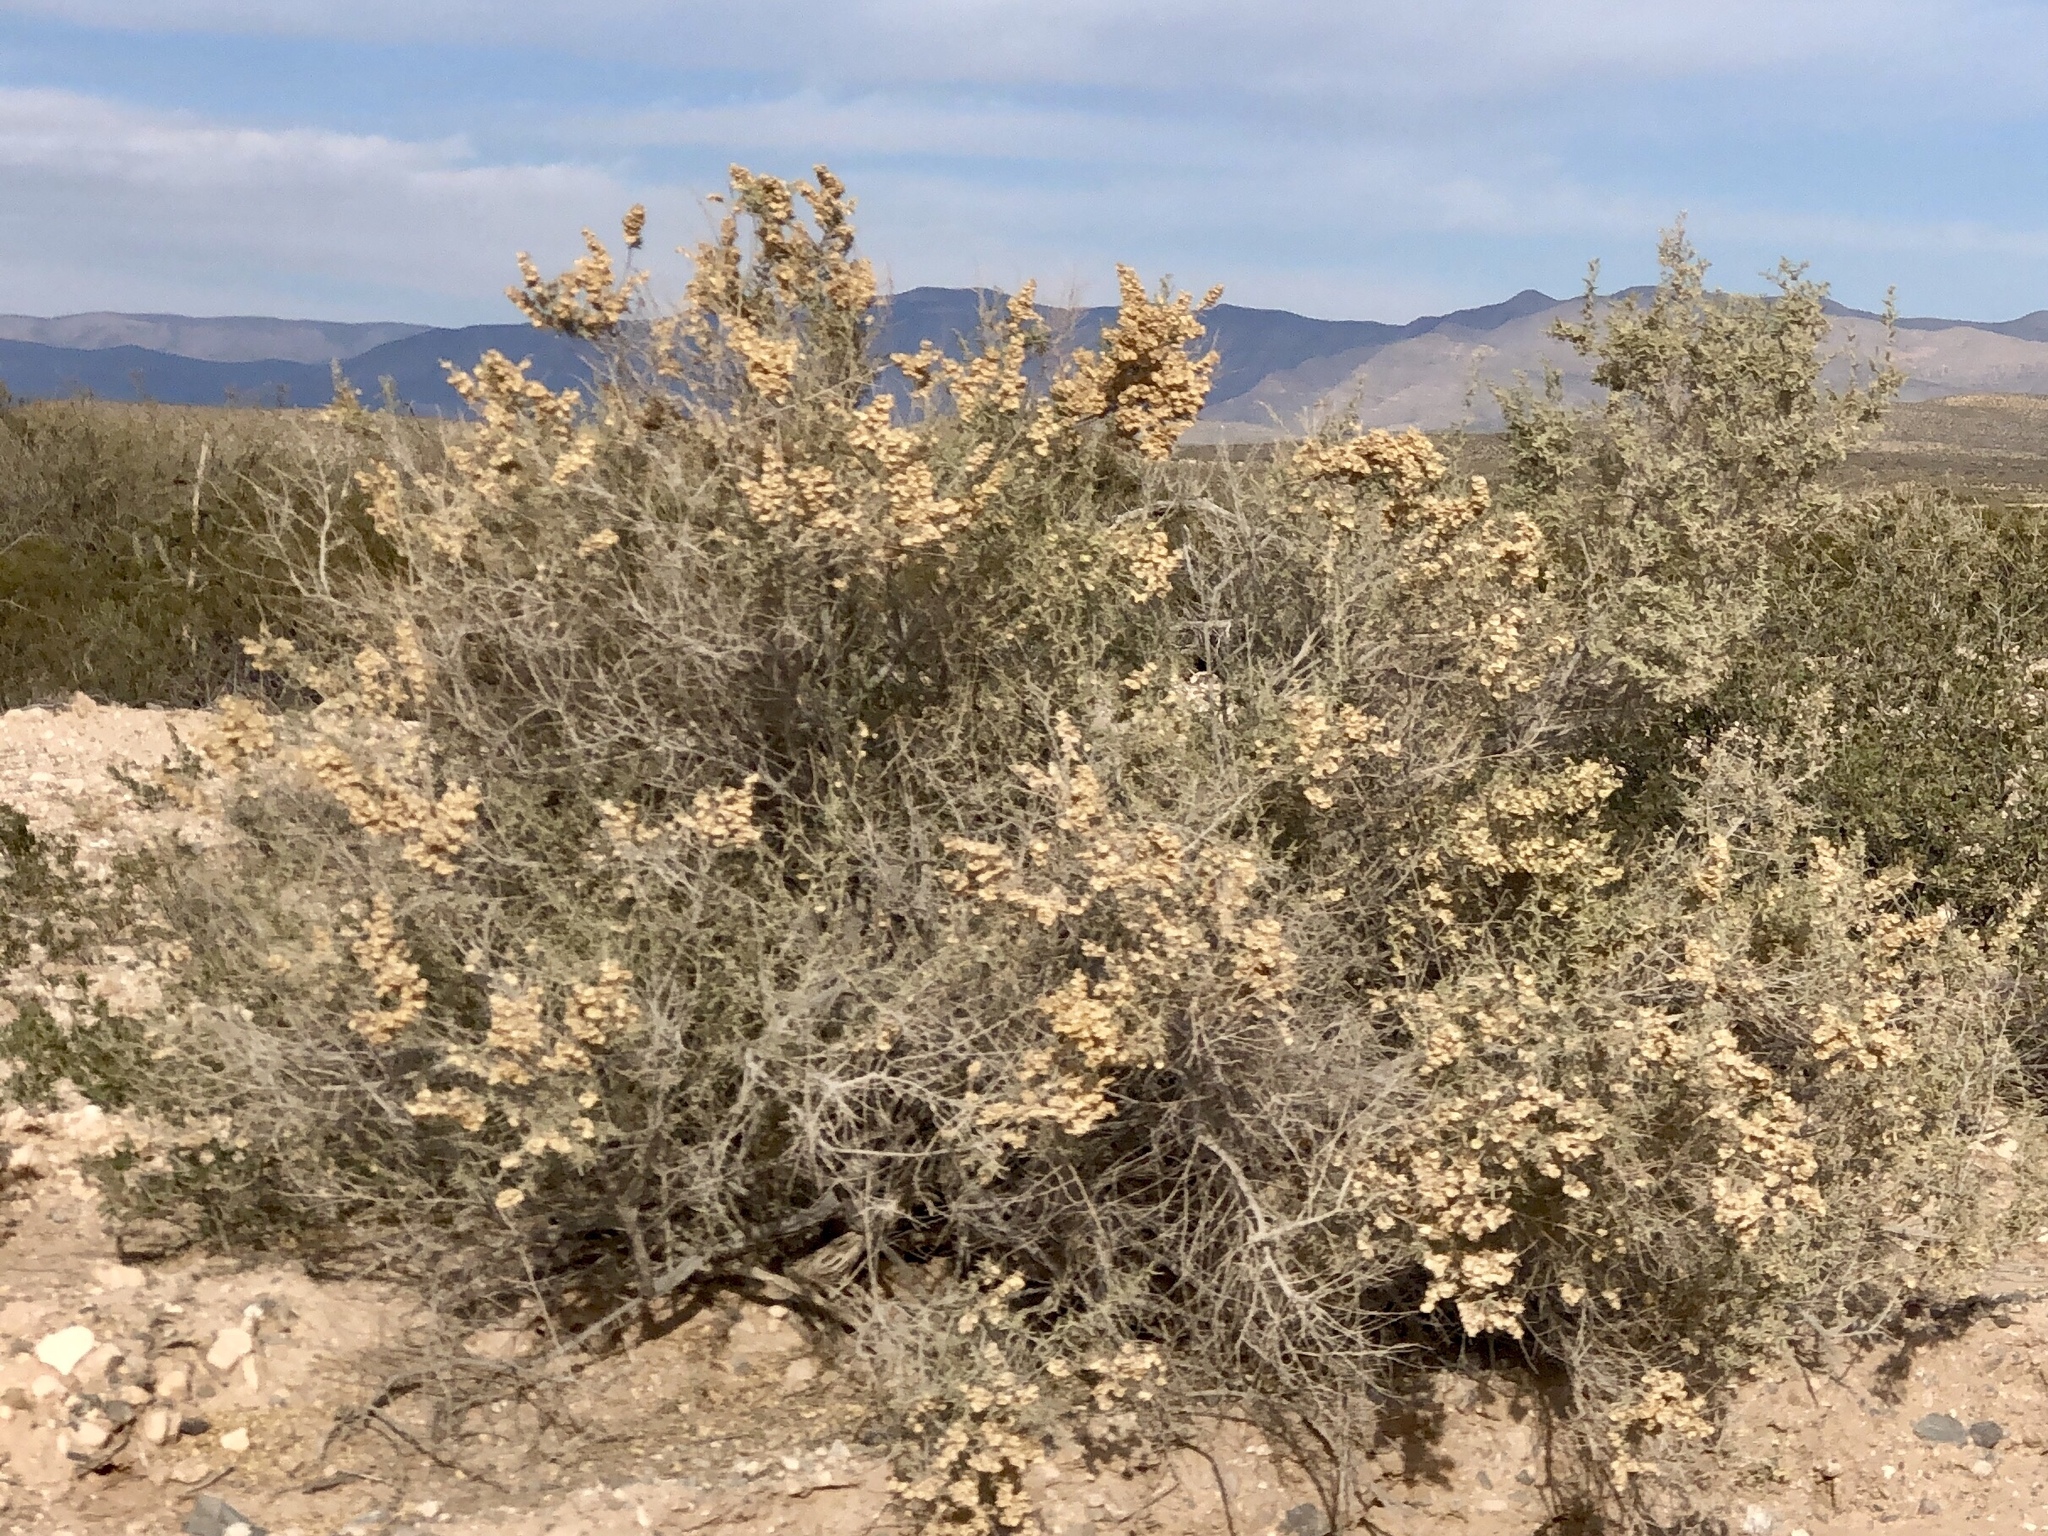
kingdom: Plantae
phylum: Tracheophyta
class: Magnoliopsida
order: Caryophyllales
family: Amaranthaceae
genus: Atriplex
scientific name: Atriplex canescens
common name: Four-wing saltbush
